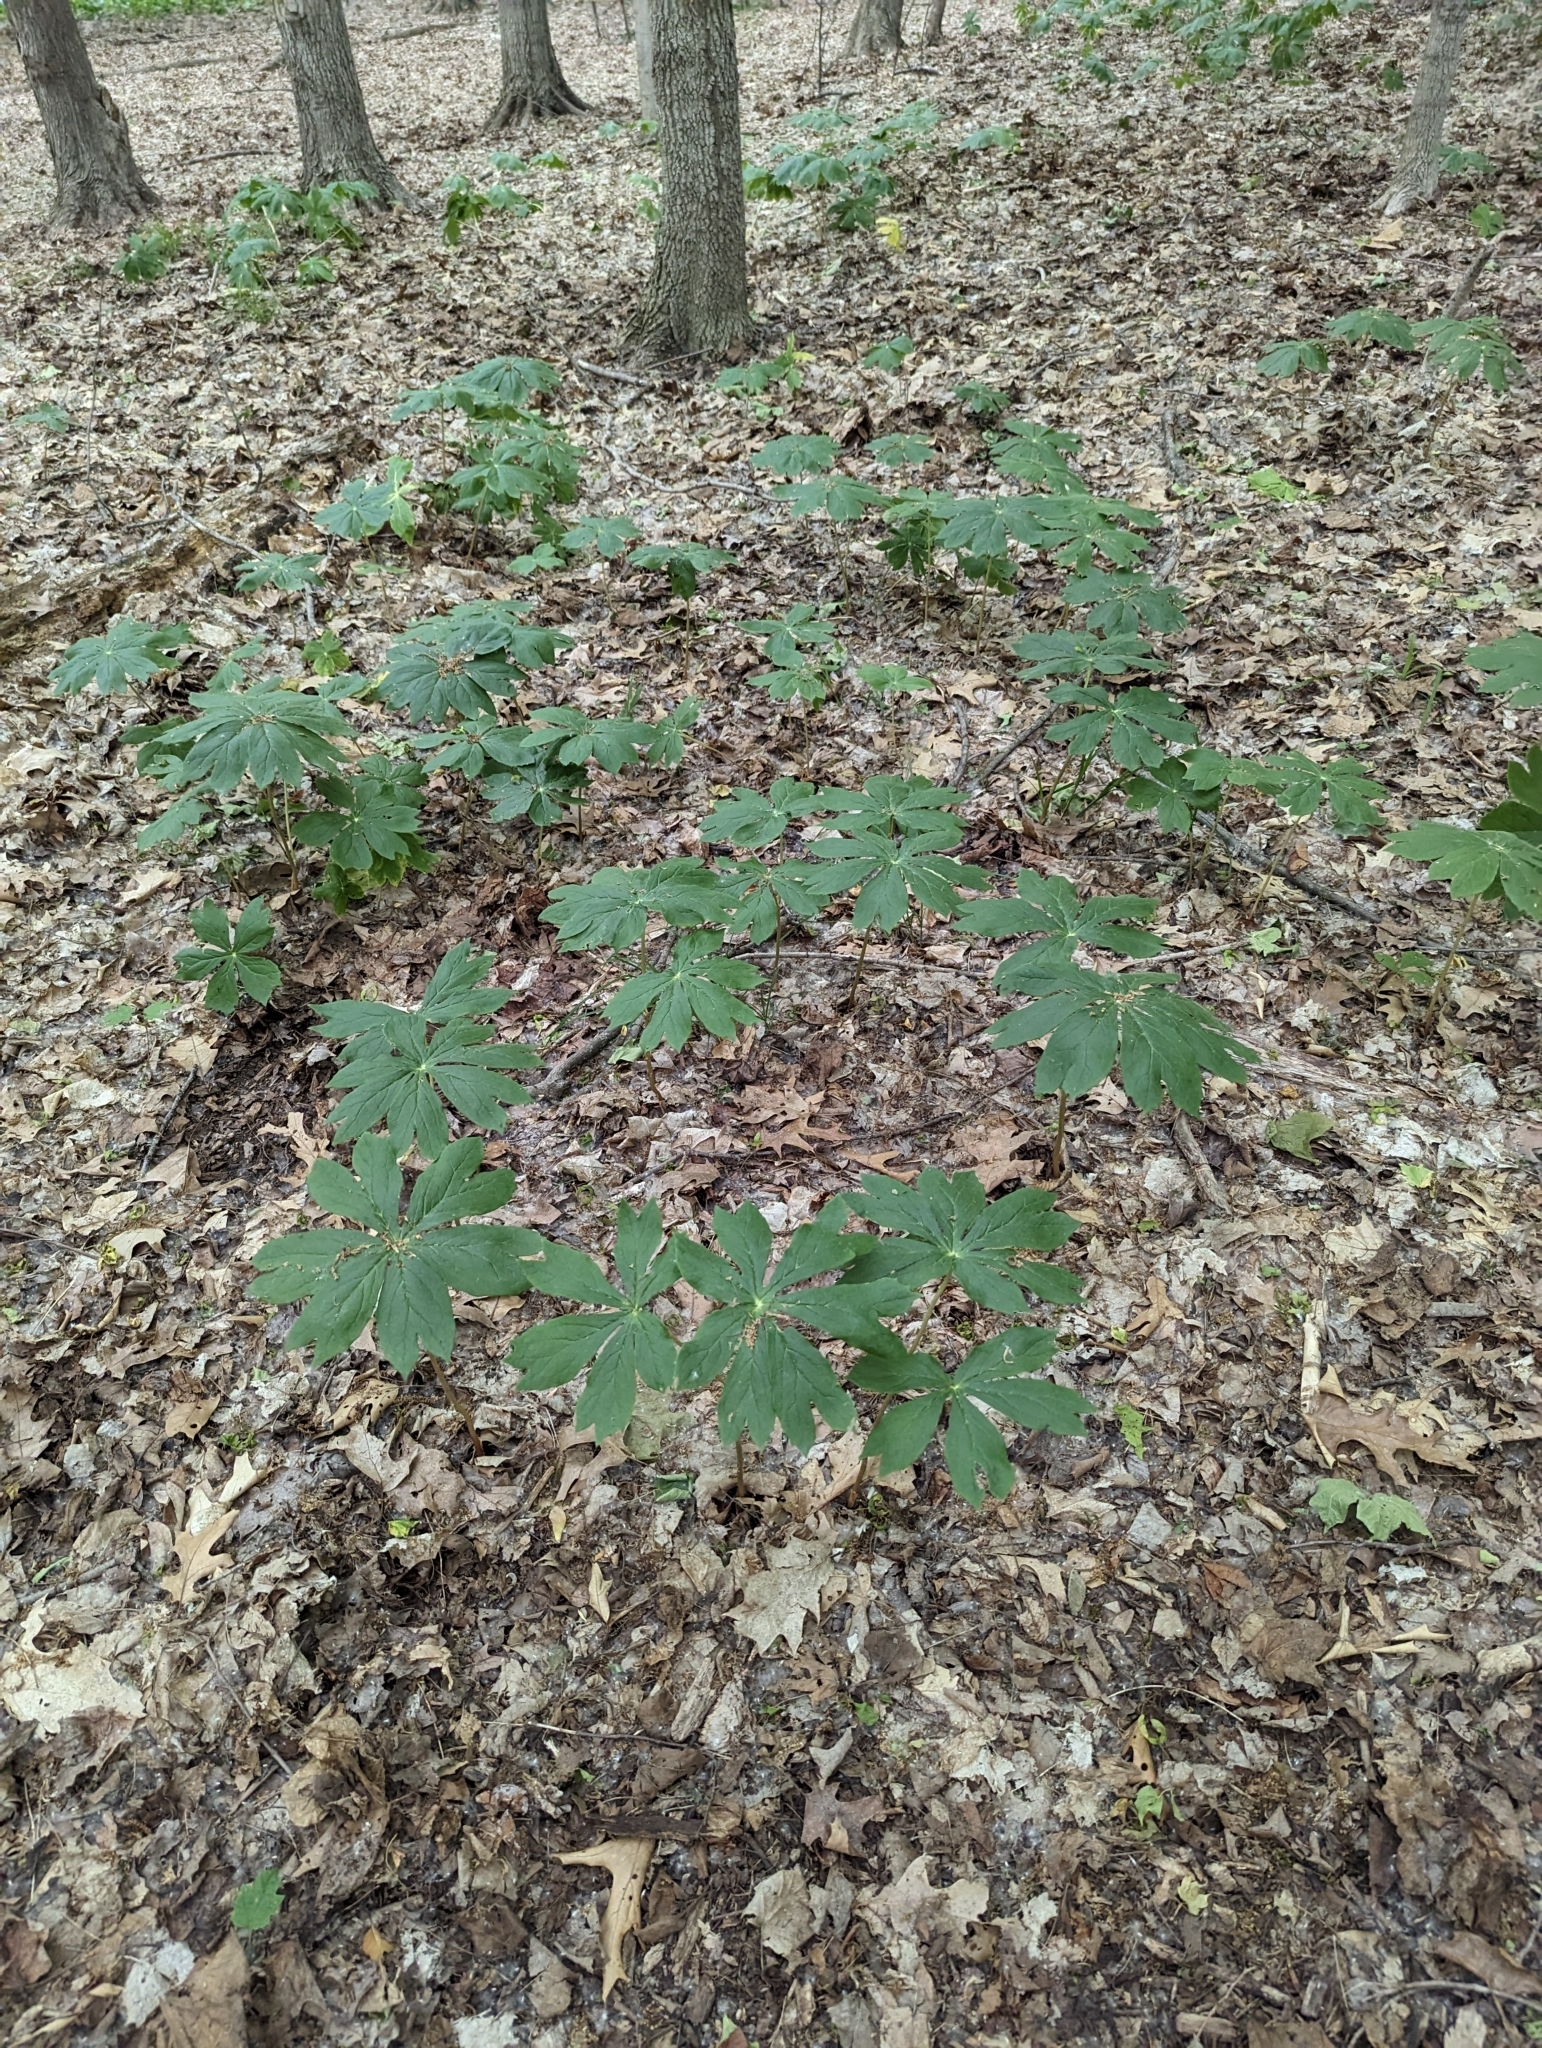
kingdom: Plantae
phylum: Tracheophyta
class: Magnoliopsida
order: Ranunculales
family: Berberidaceae
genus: Podophyllum
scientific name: Podophyllum peltatum
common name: Wild mandrake
